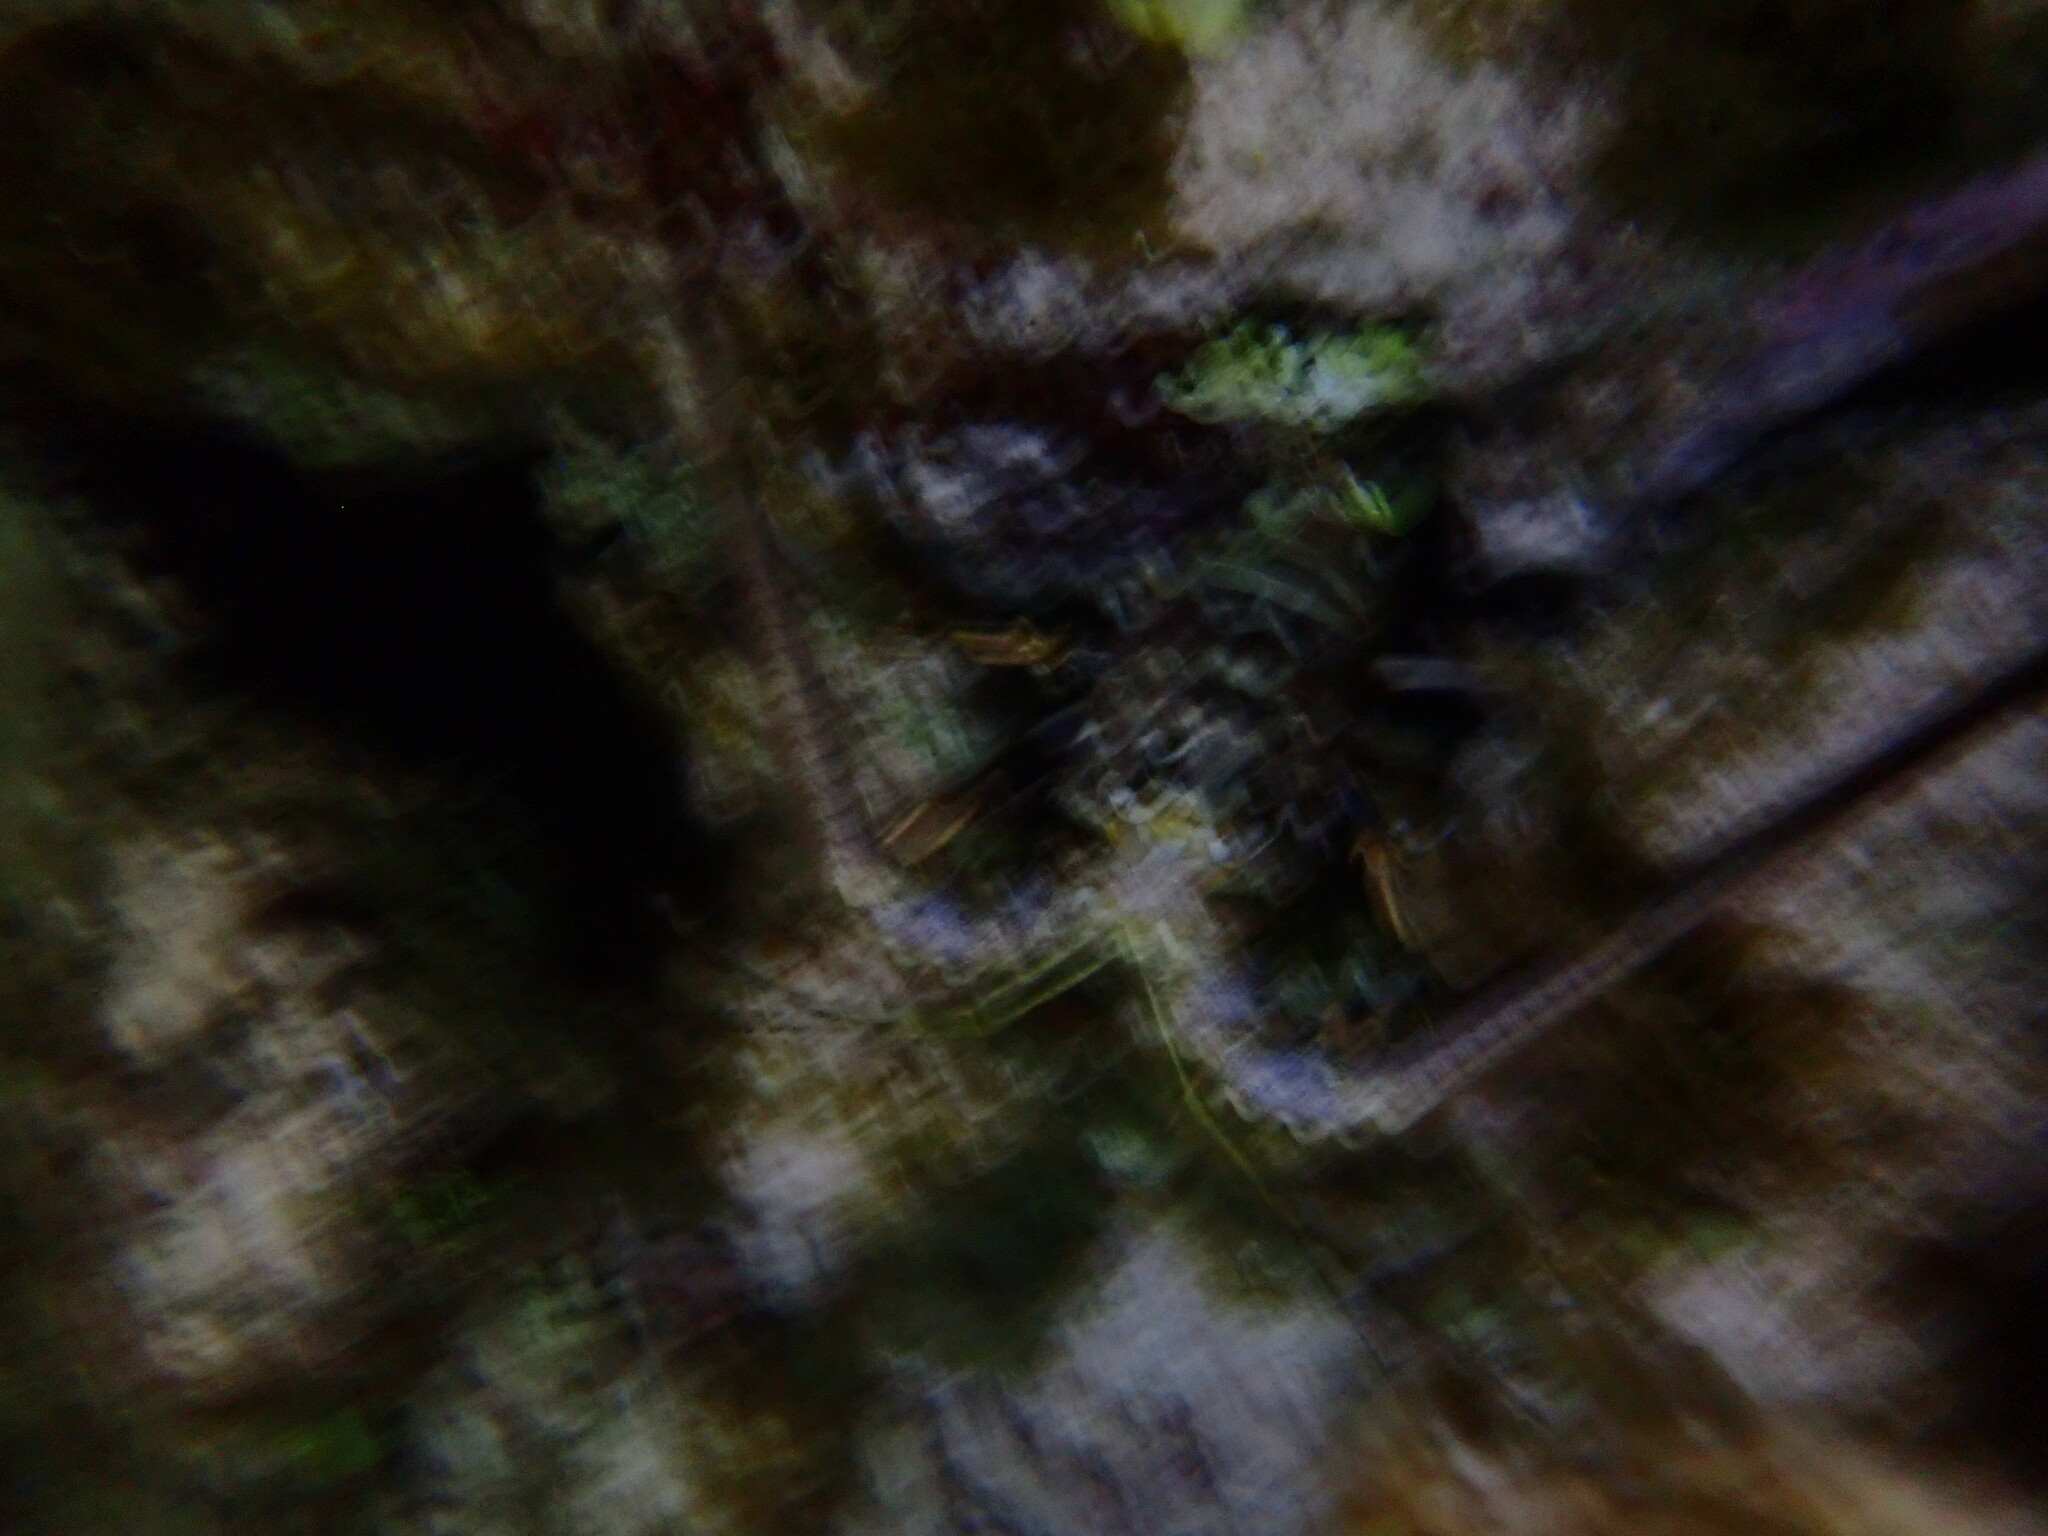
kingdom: Animalia
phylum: Arthropoda
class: Malacostraca
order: Decapoda
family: Palinuridae
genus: Panulirus
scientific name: Panulirus argus
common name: Caribbean spiny lobster
